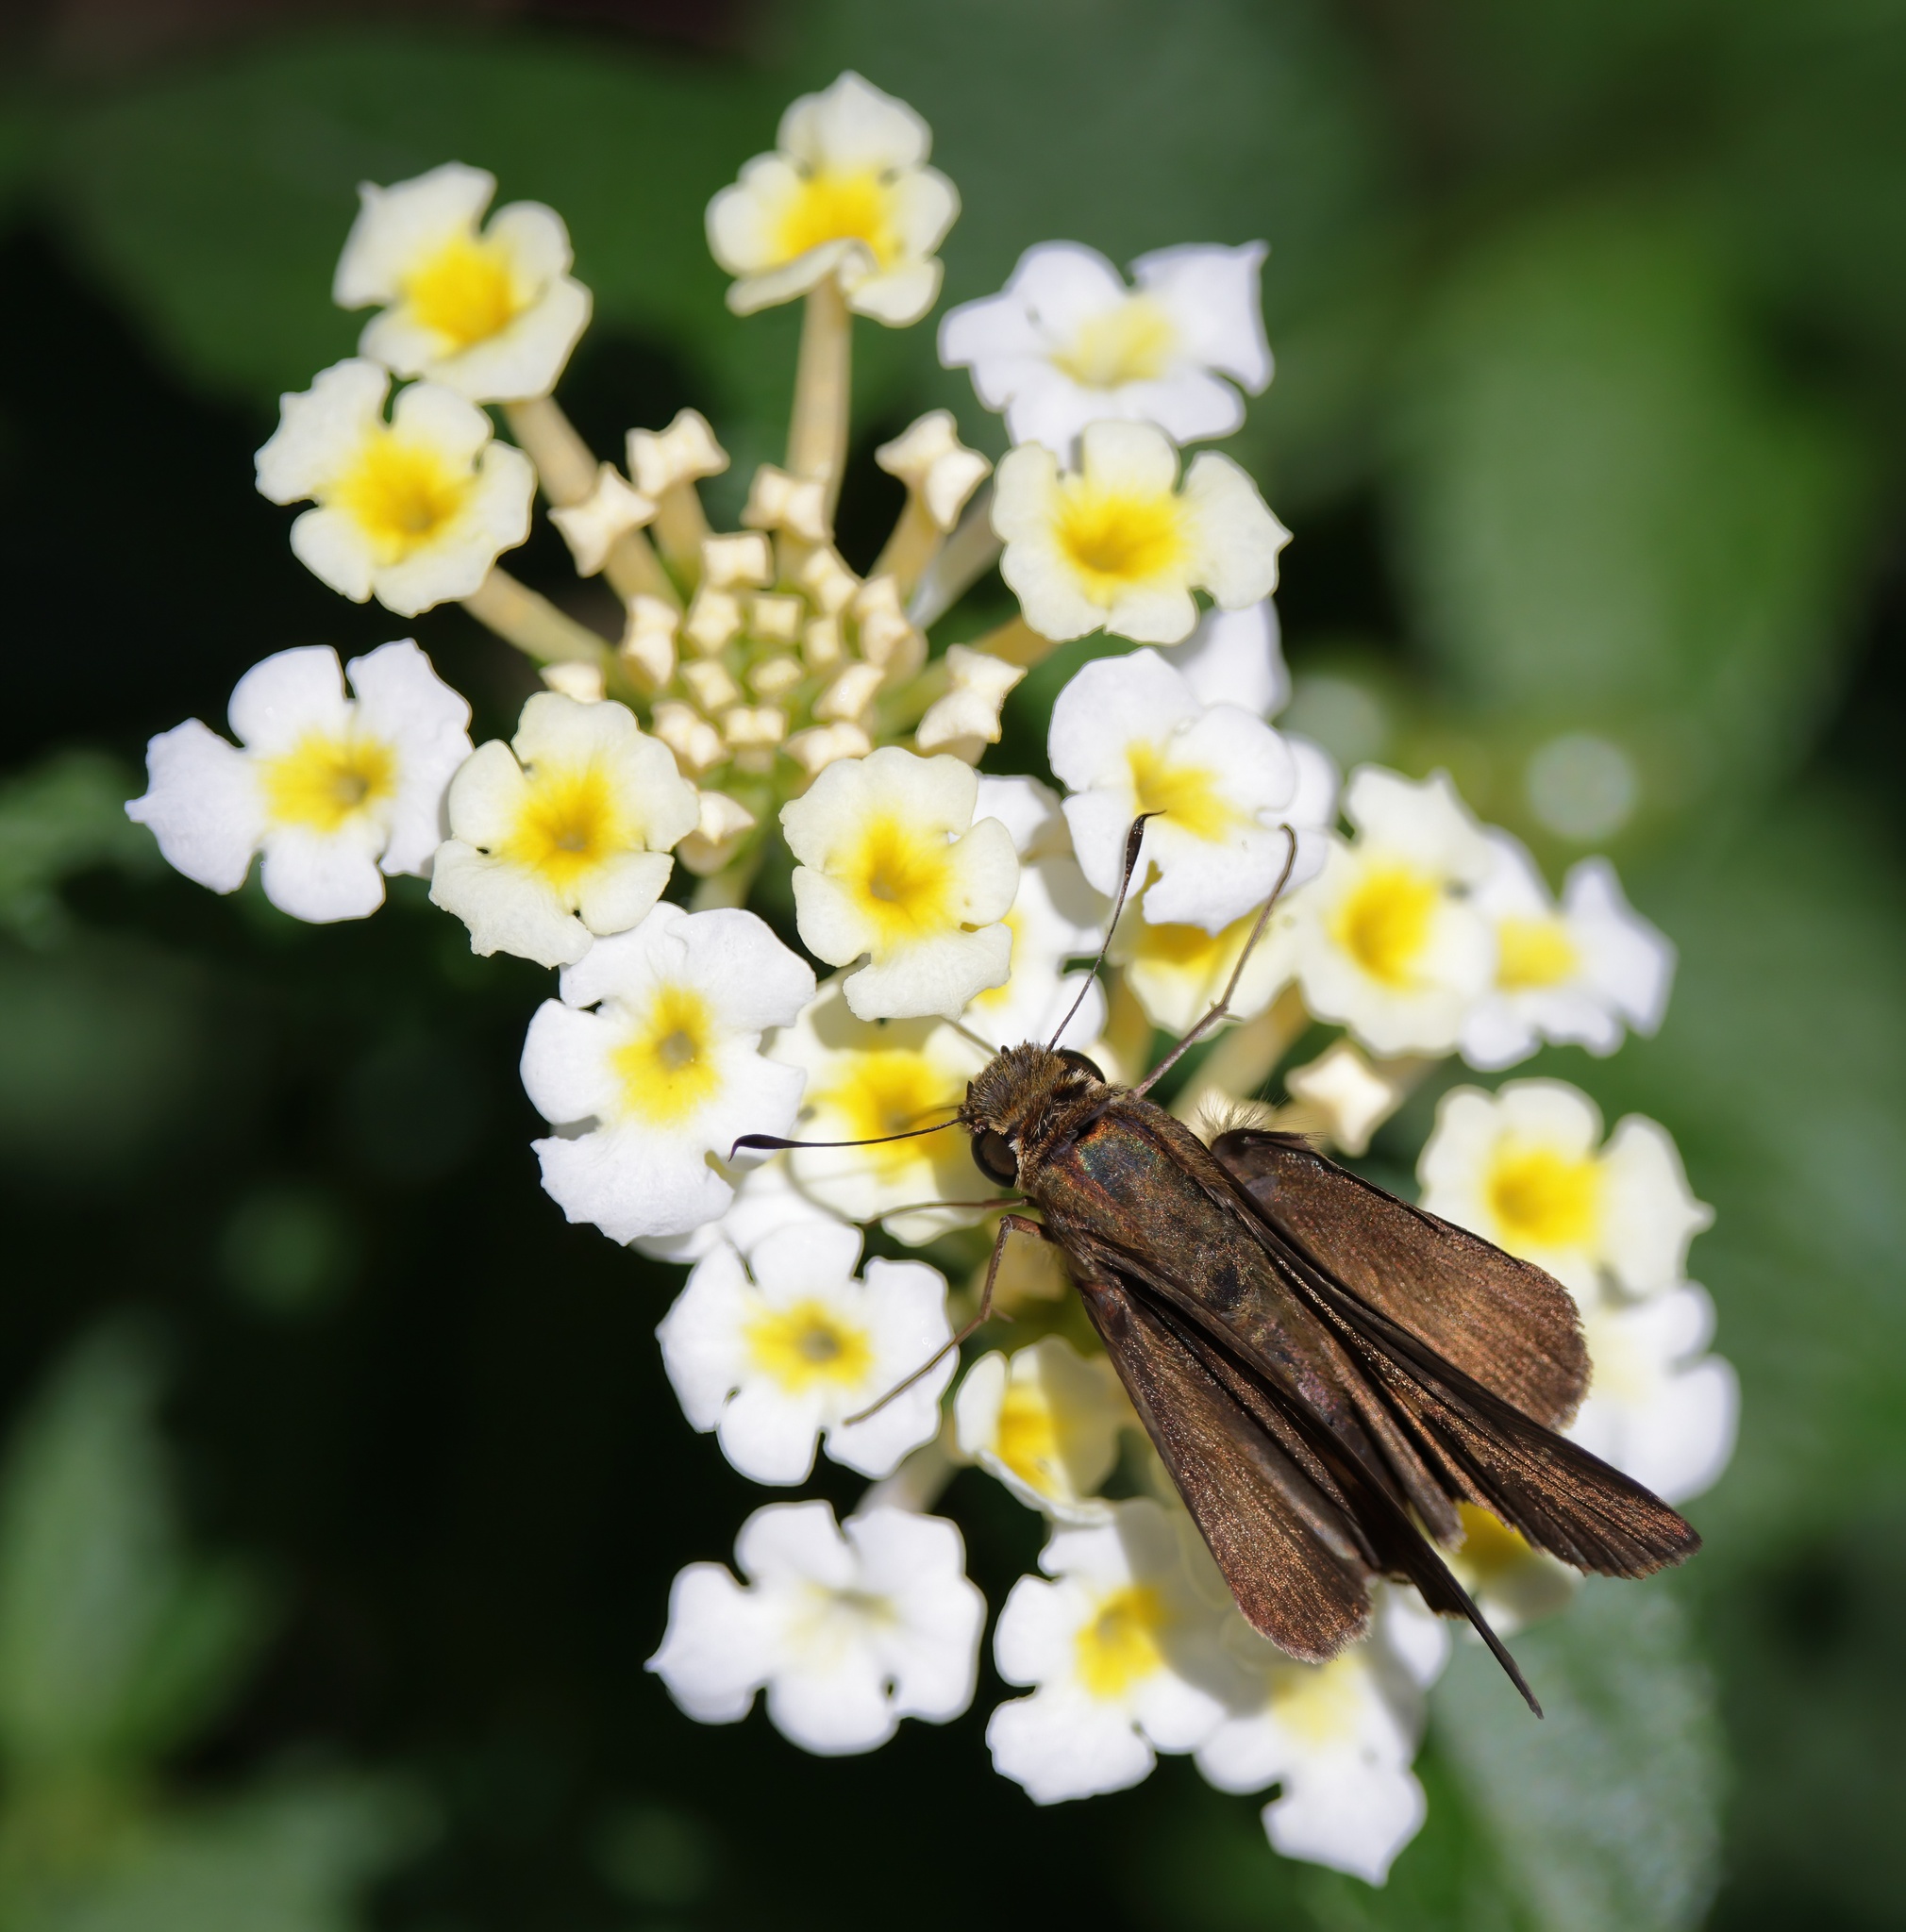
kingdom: Animalia
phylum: Arthropoda
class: Insecta
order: Lepidoptera
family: Hesperiidae
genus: Panoquina
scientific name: Panoquina ocola
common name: Ocola skipper
